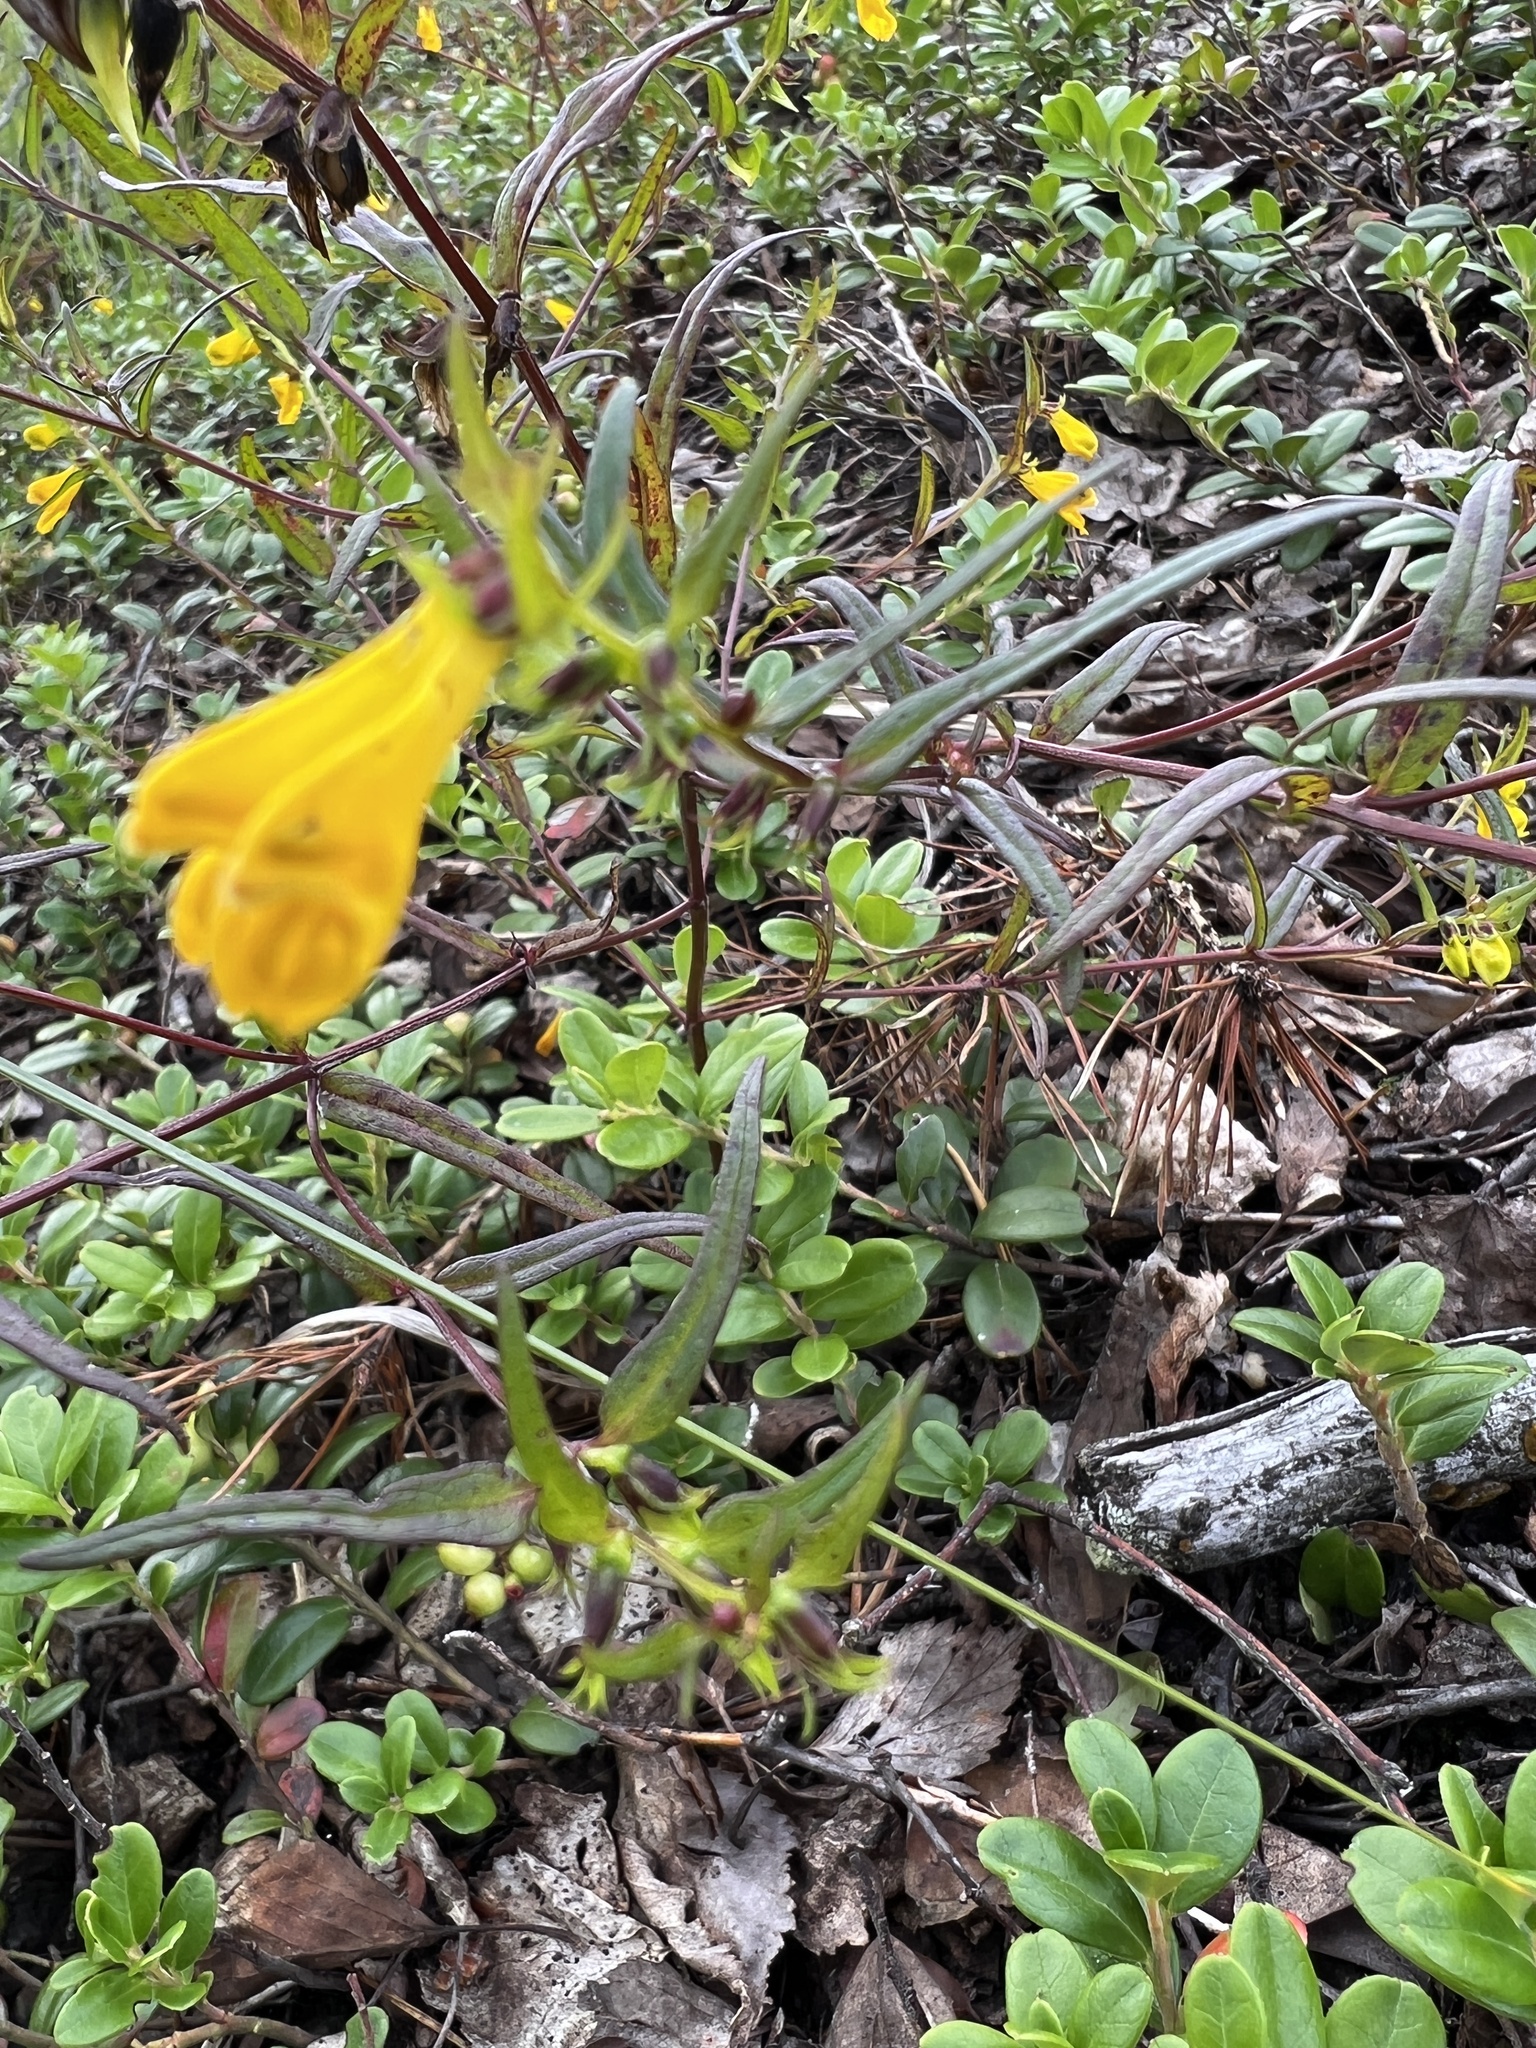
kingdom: Plantae
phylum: Tracheophyta
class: Magnoliopsida
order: Lamiales
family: Orobanchaceae
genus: Melampyrum
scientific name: Melampyrum pratense
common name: Common cow-wheat
